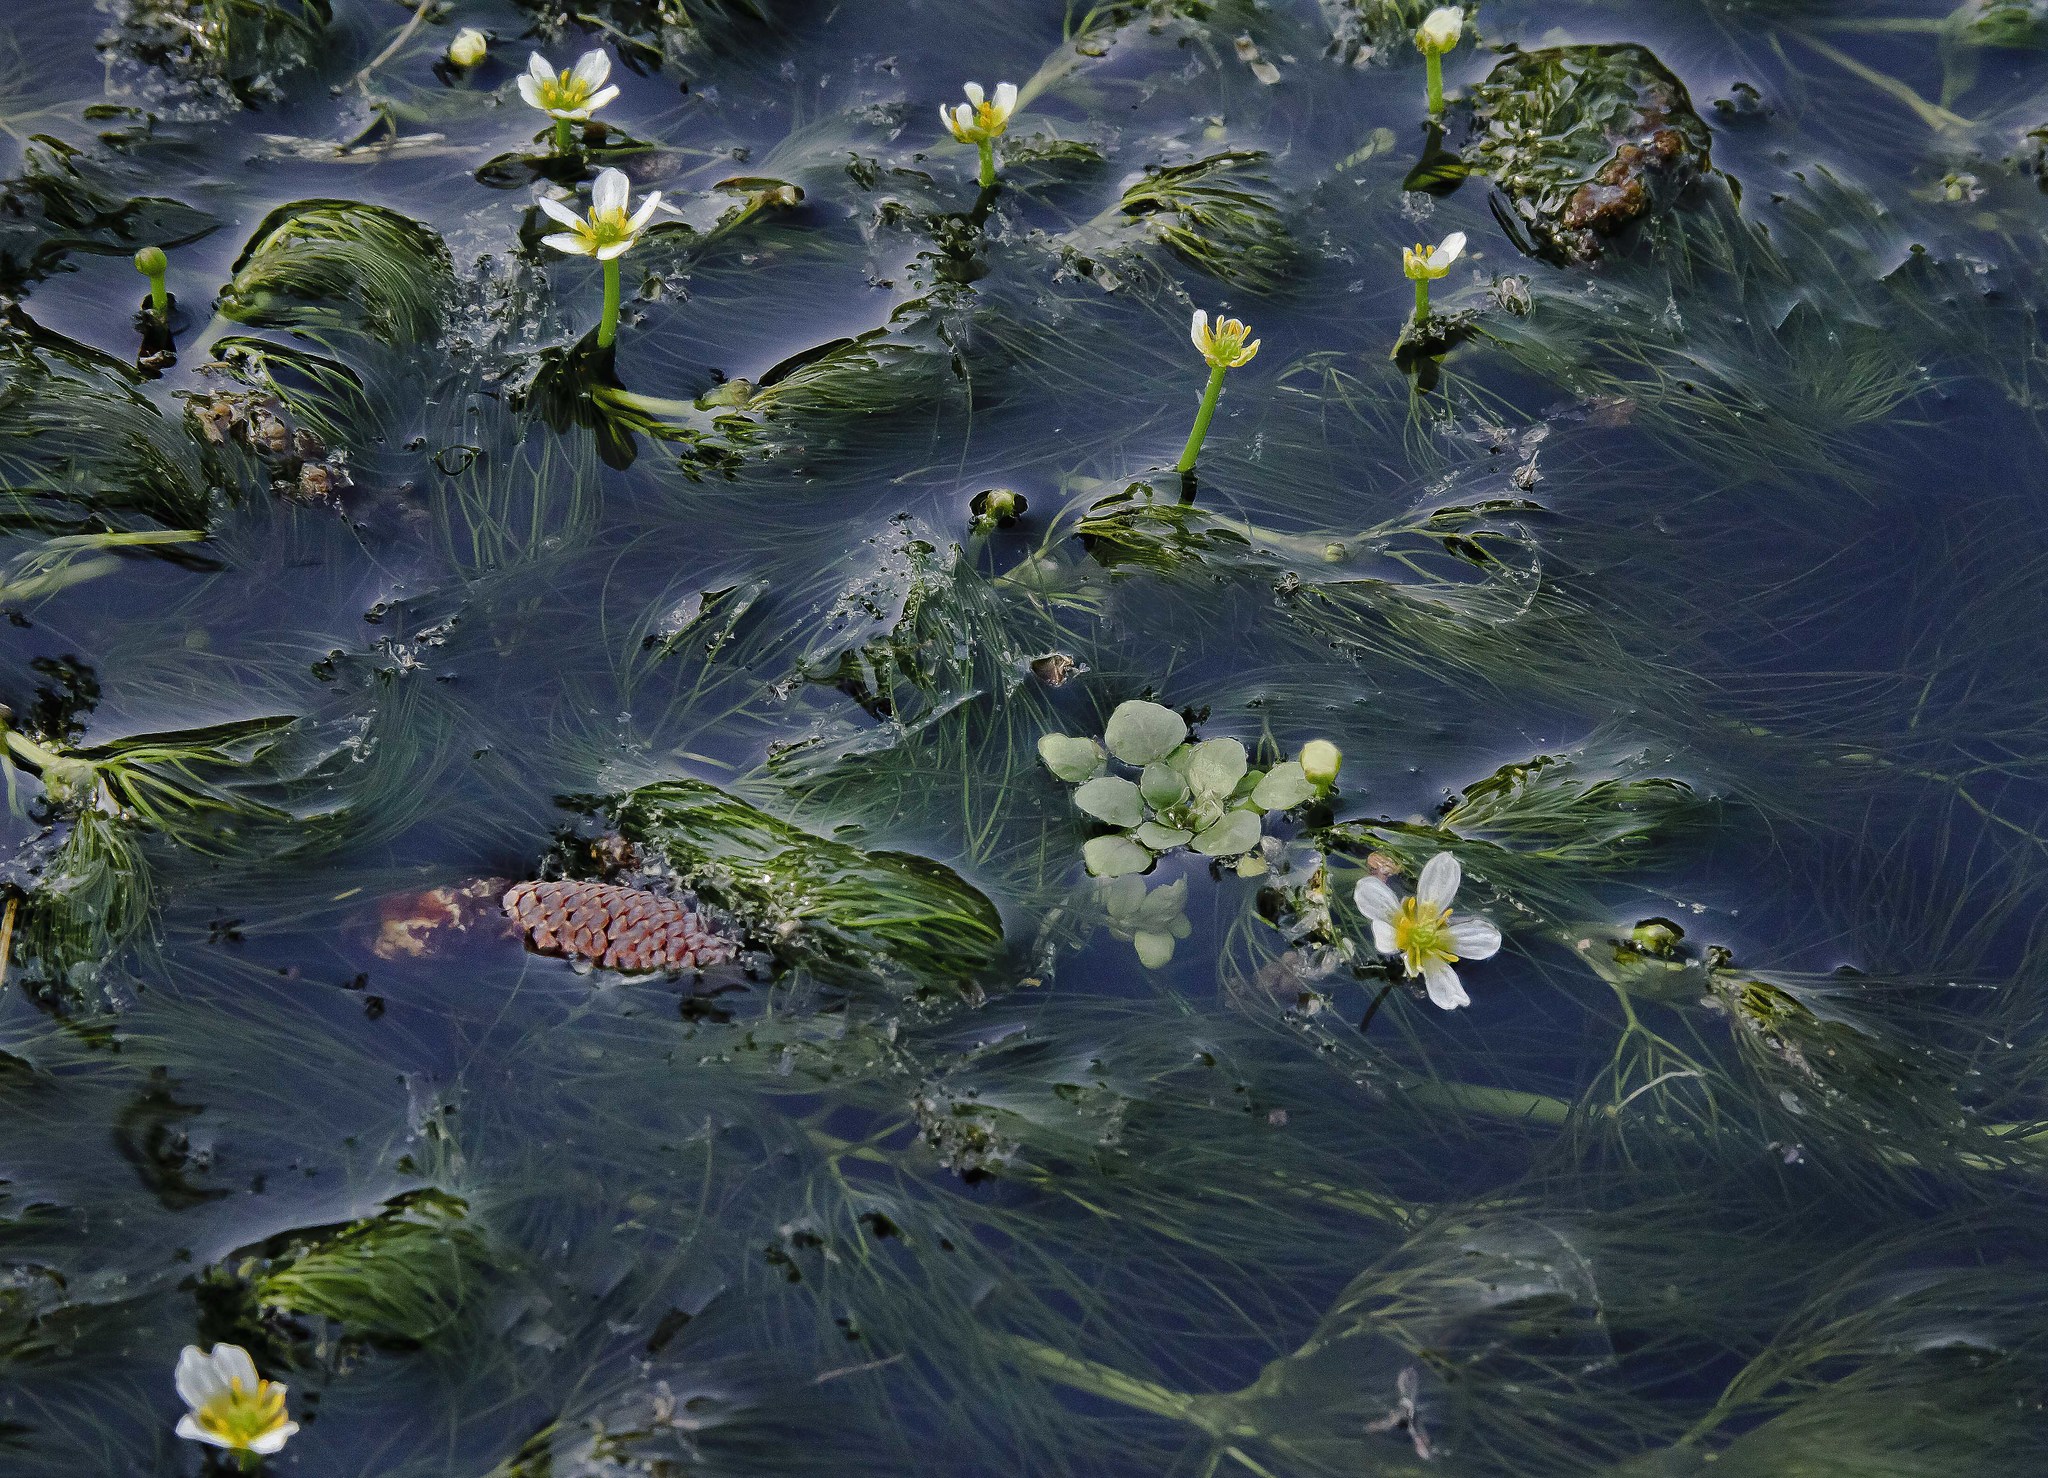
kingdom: Plantae
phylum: Tracheophyta
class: Magnoliopsida
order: Ranunculales
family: Ranunculaceae
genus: Ranunculus
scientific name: Ranunculus aquatilis
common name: Common water-crowfoot
